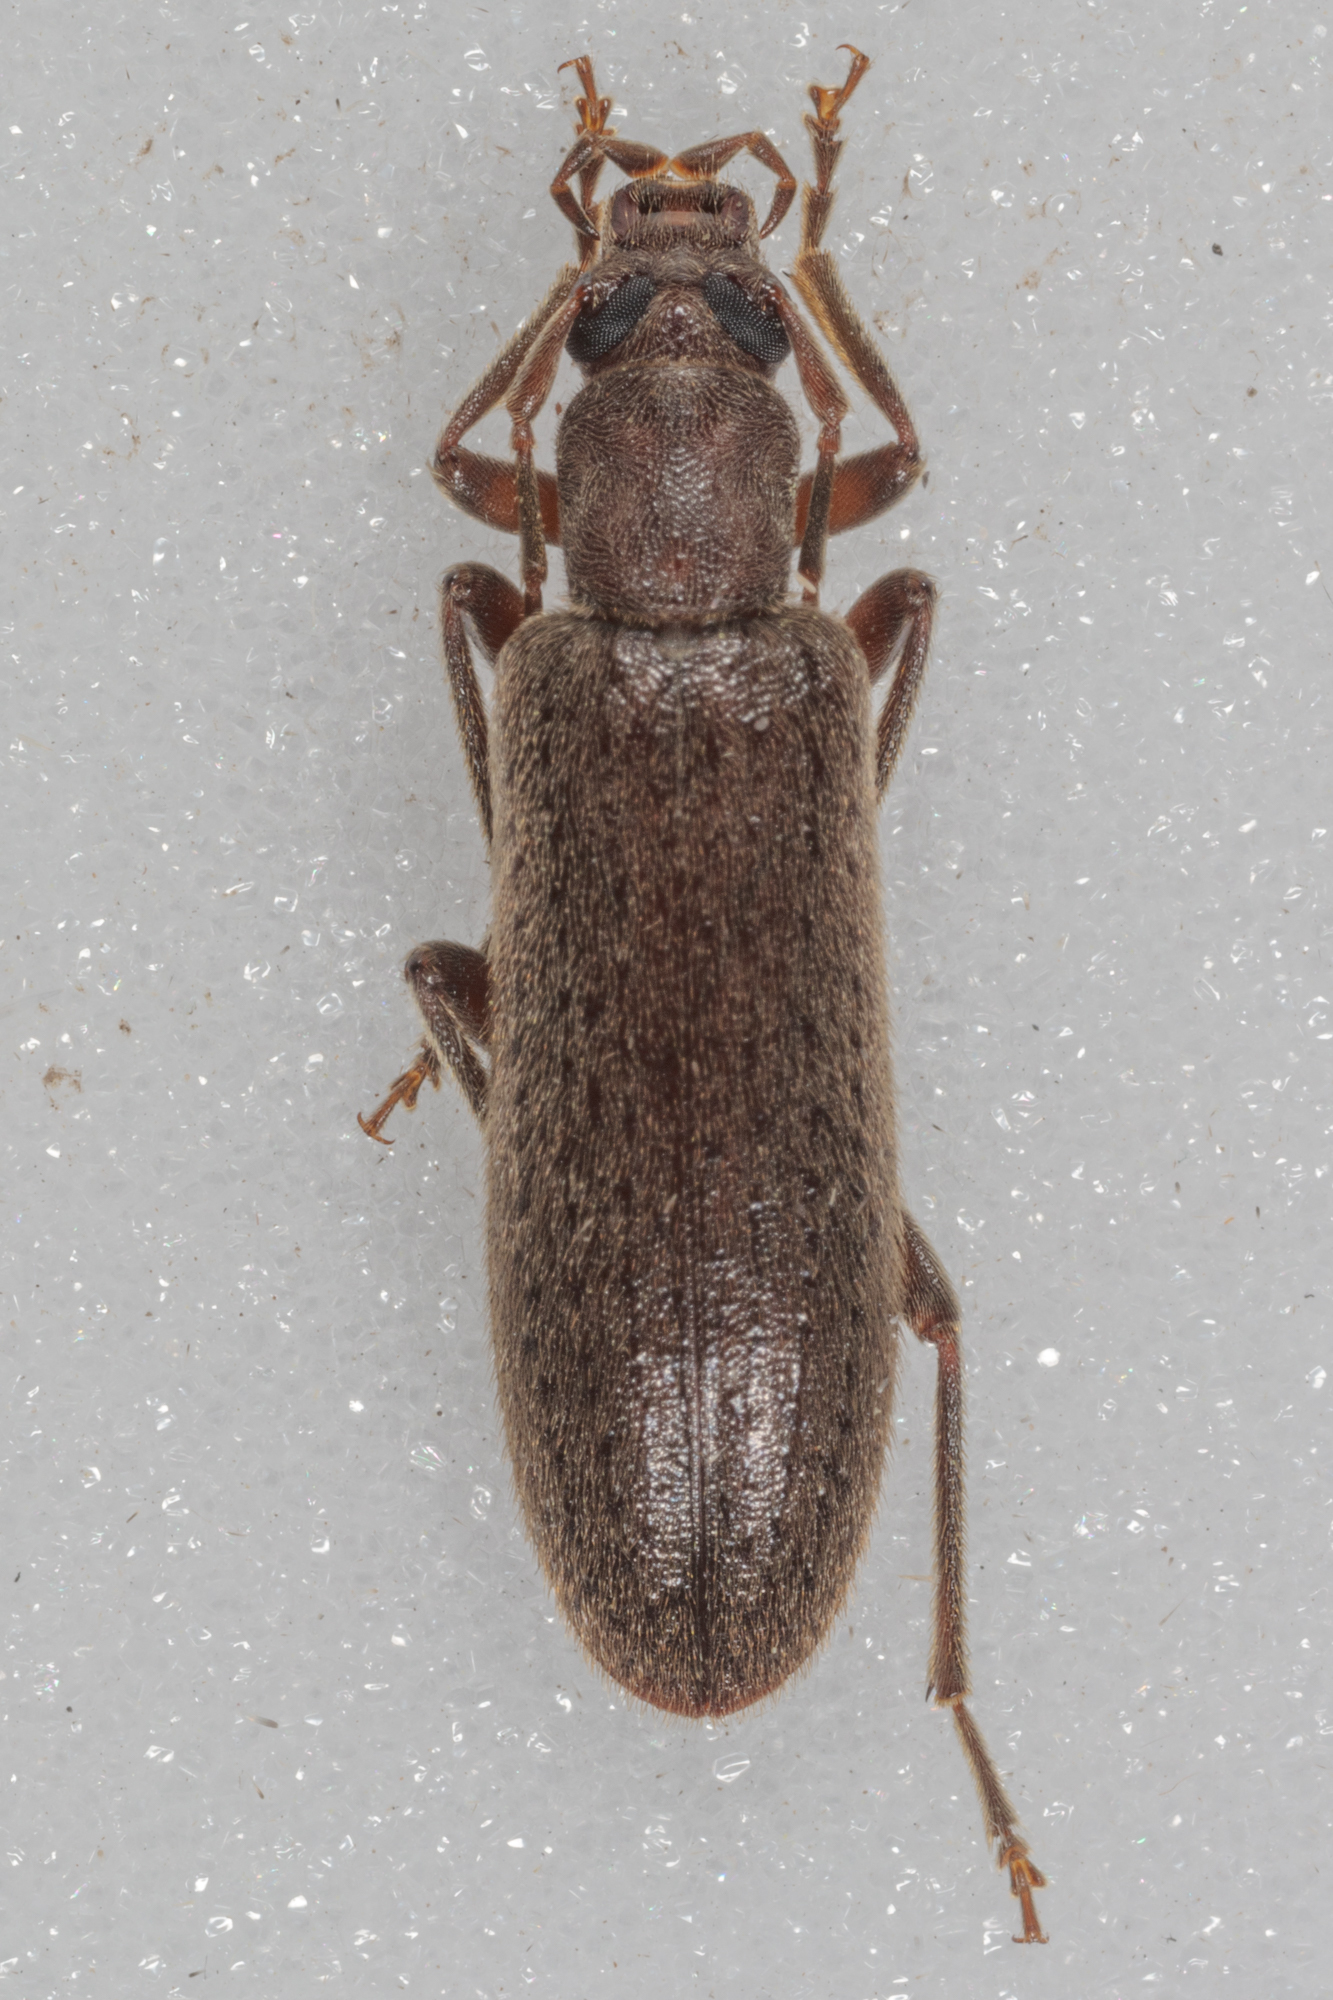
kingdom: Animalia
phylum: Arthropoda
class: Insecta
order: Coleoptera
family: Oedemeridae
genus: Sparedrus
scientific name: Sparedrus aspersus
